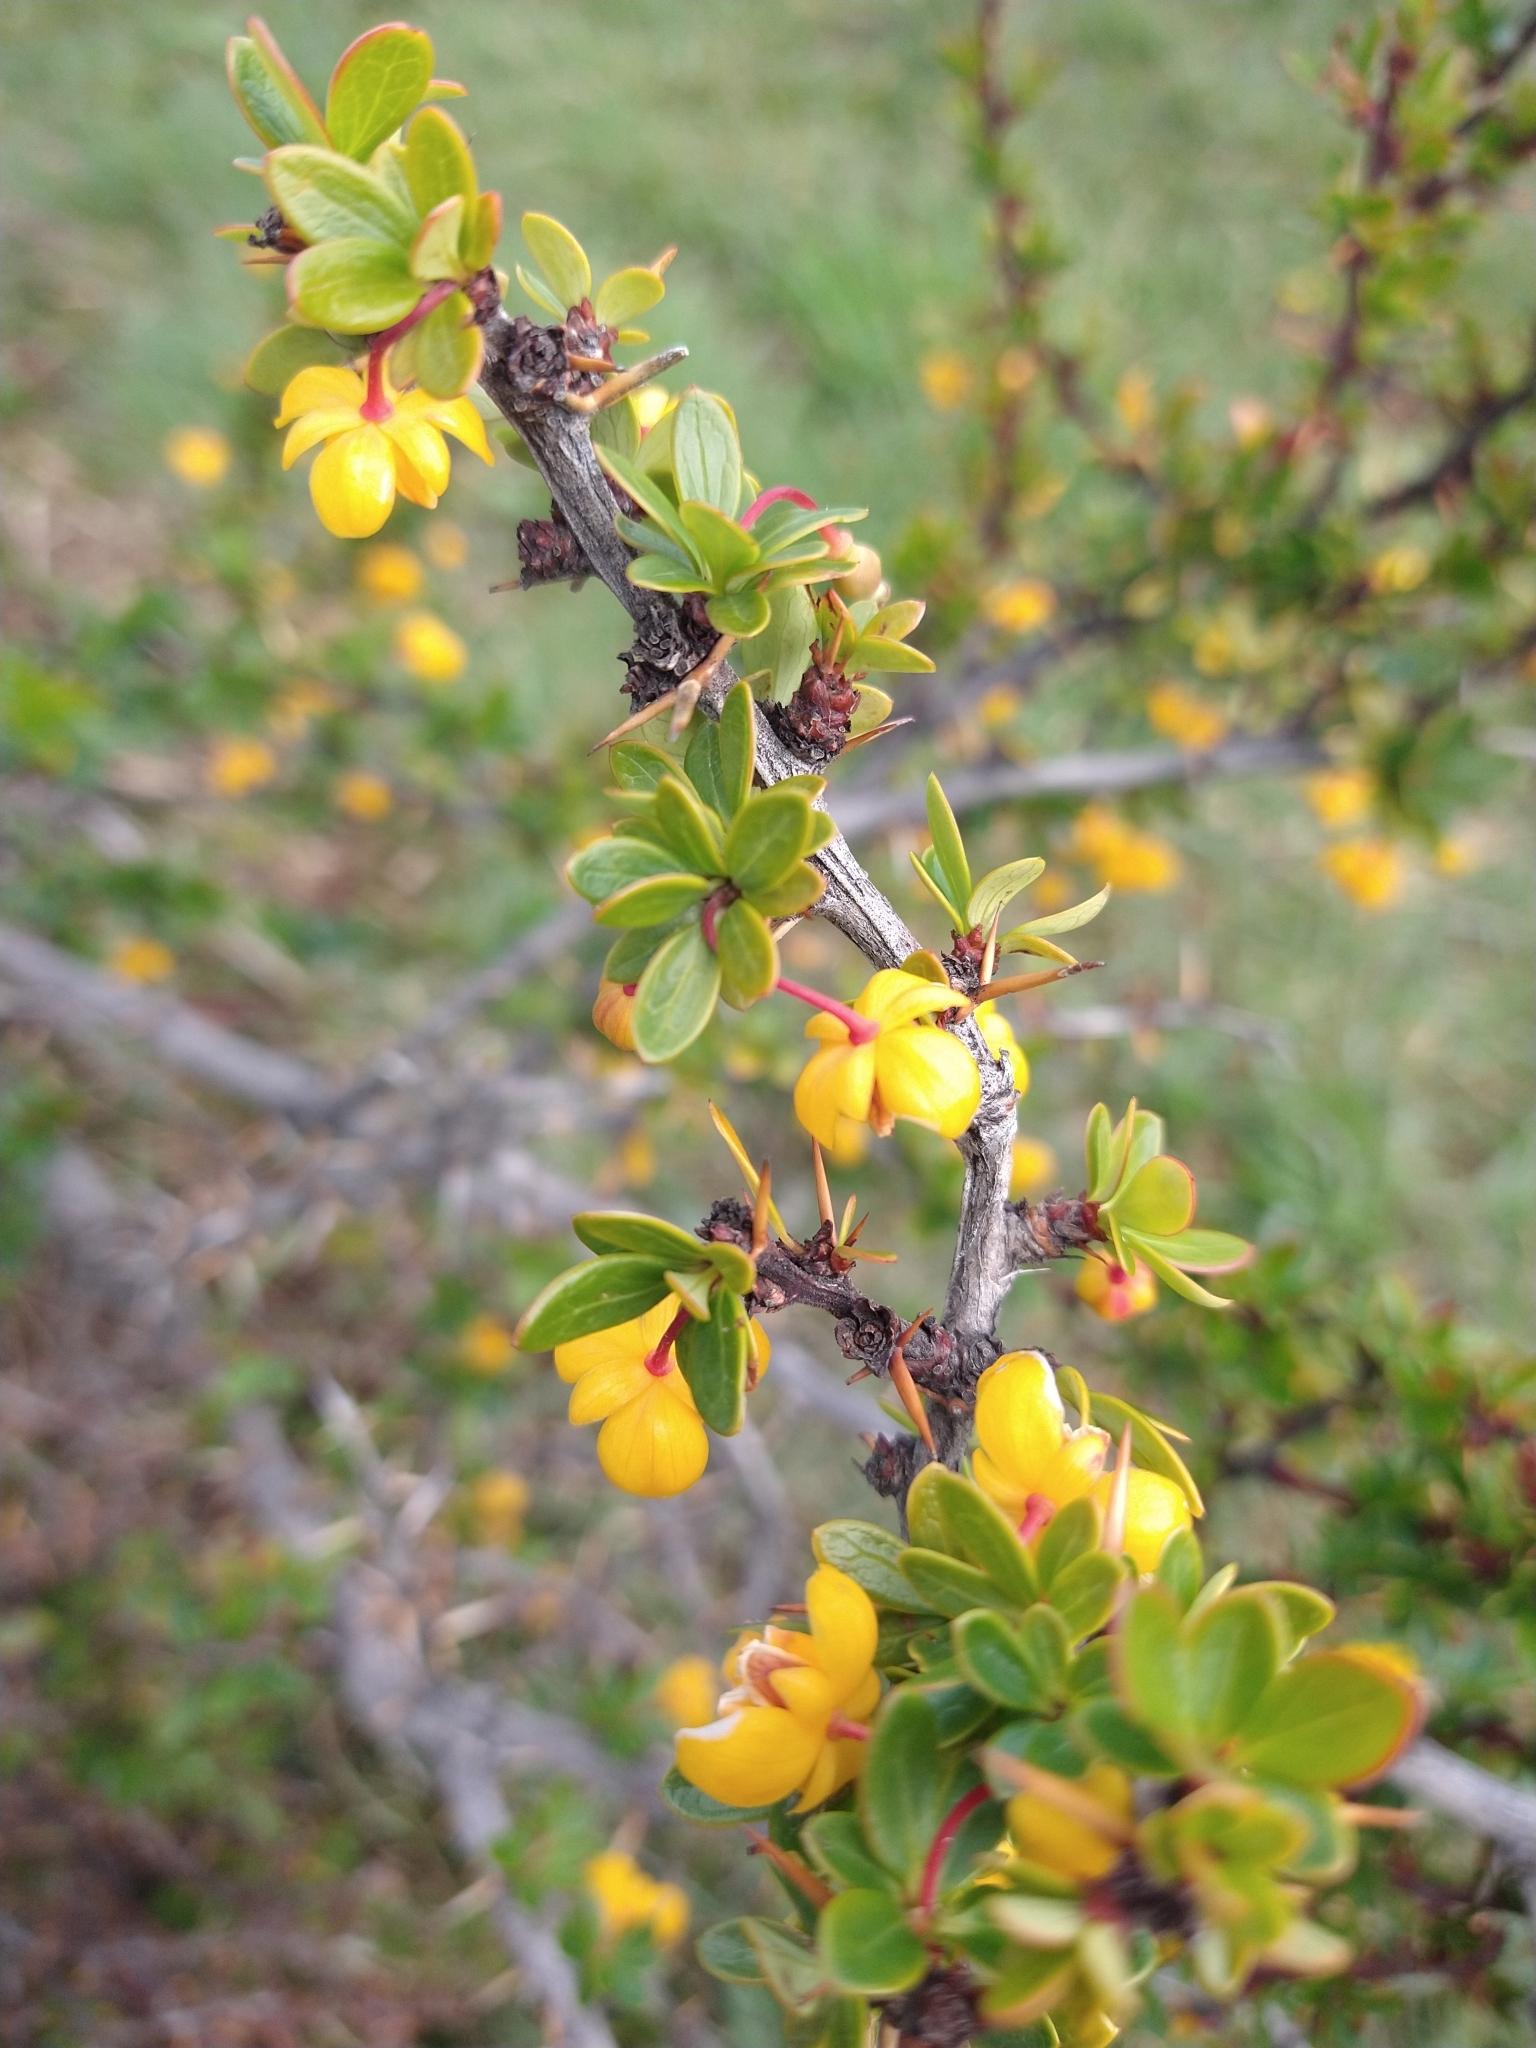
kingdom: Plantae
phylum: Tracheophyta
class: Magnoliopsida
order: Ranunculales
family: Berberidaceae
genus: Berberis
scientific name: Berberis microphylla
